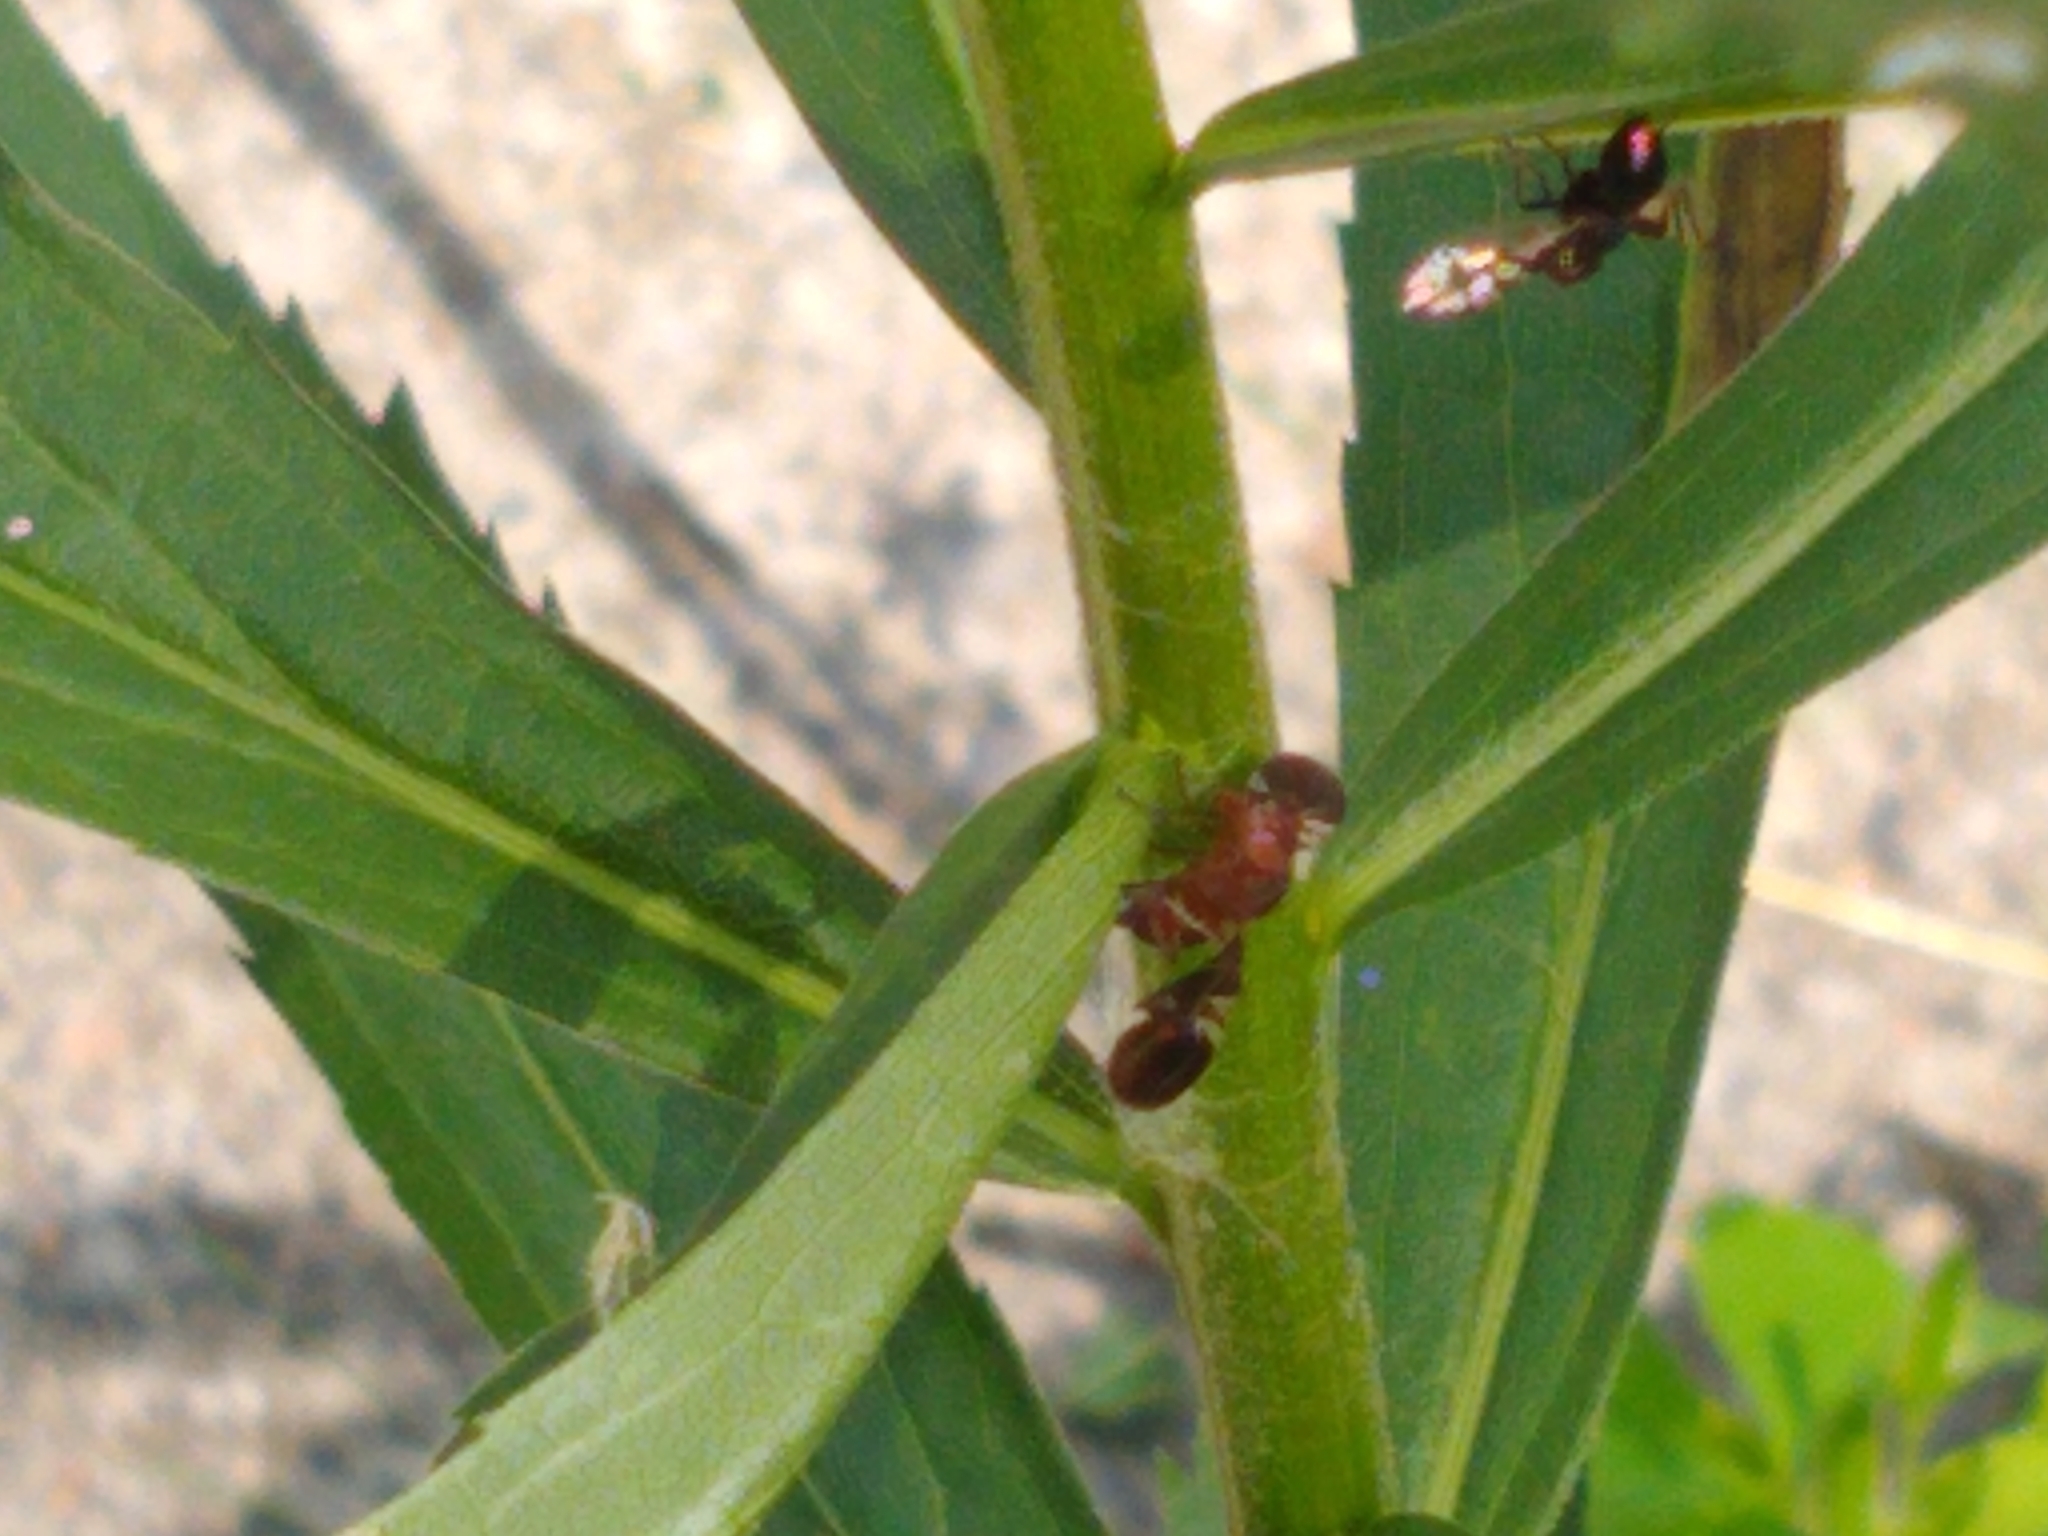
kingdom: Animalia
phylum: Arthropoda
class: Insecta
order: Diptera
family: Ulidiidae
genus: Delphinia
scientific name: Delphinia picta
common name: Common picture-winged fly
